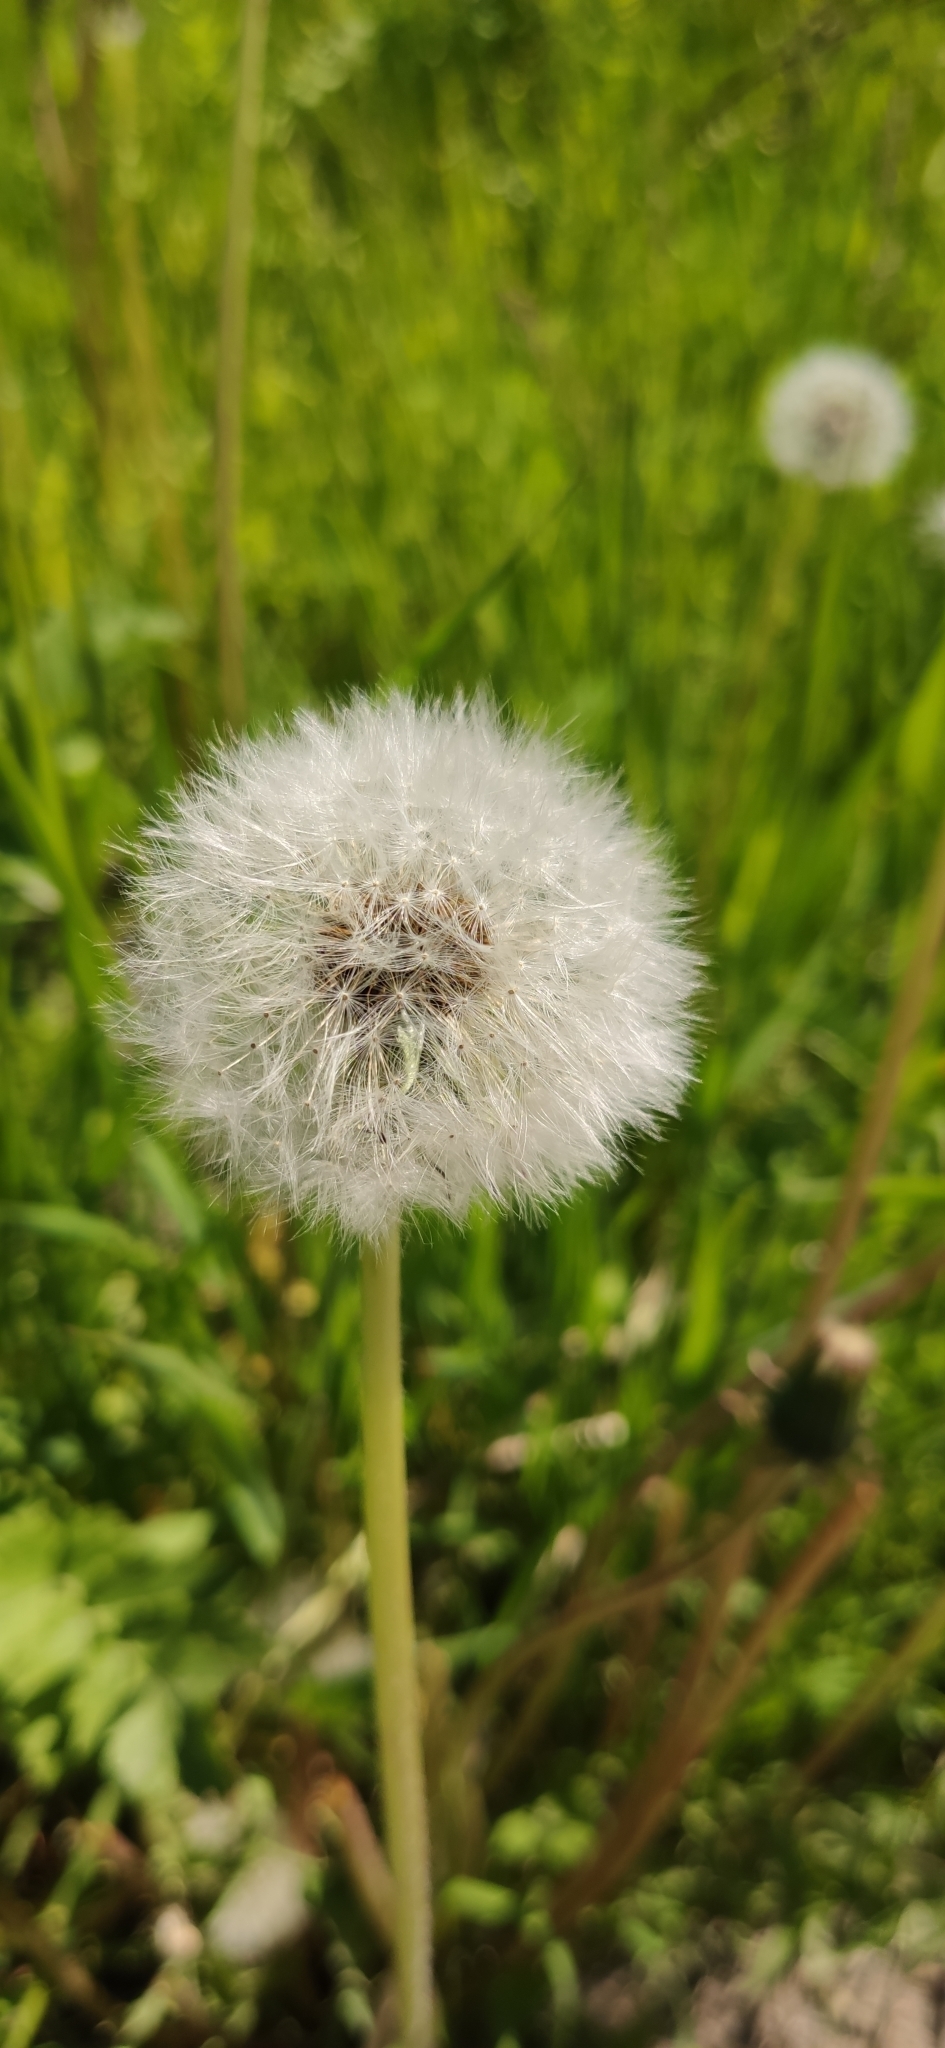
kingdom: Plantae
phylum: Tracheophyta
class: Magnoliopsida
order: Asterales
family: Asteraceae
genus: Taraxacum
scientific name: Taraxacum officinale
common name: Common dandelion
